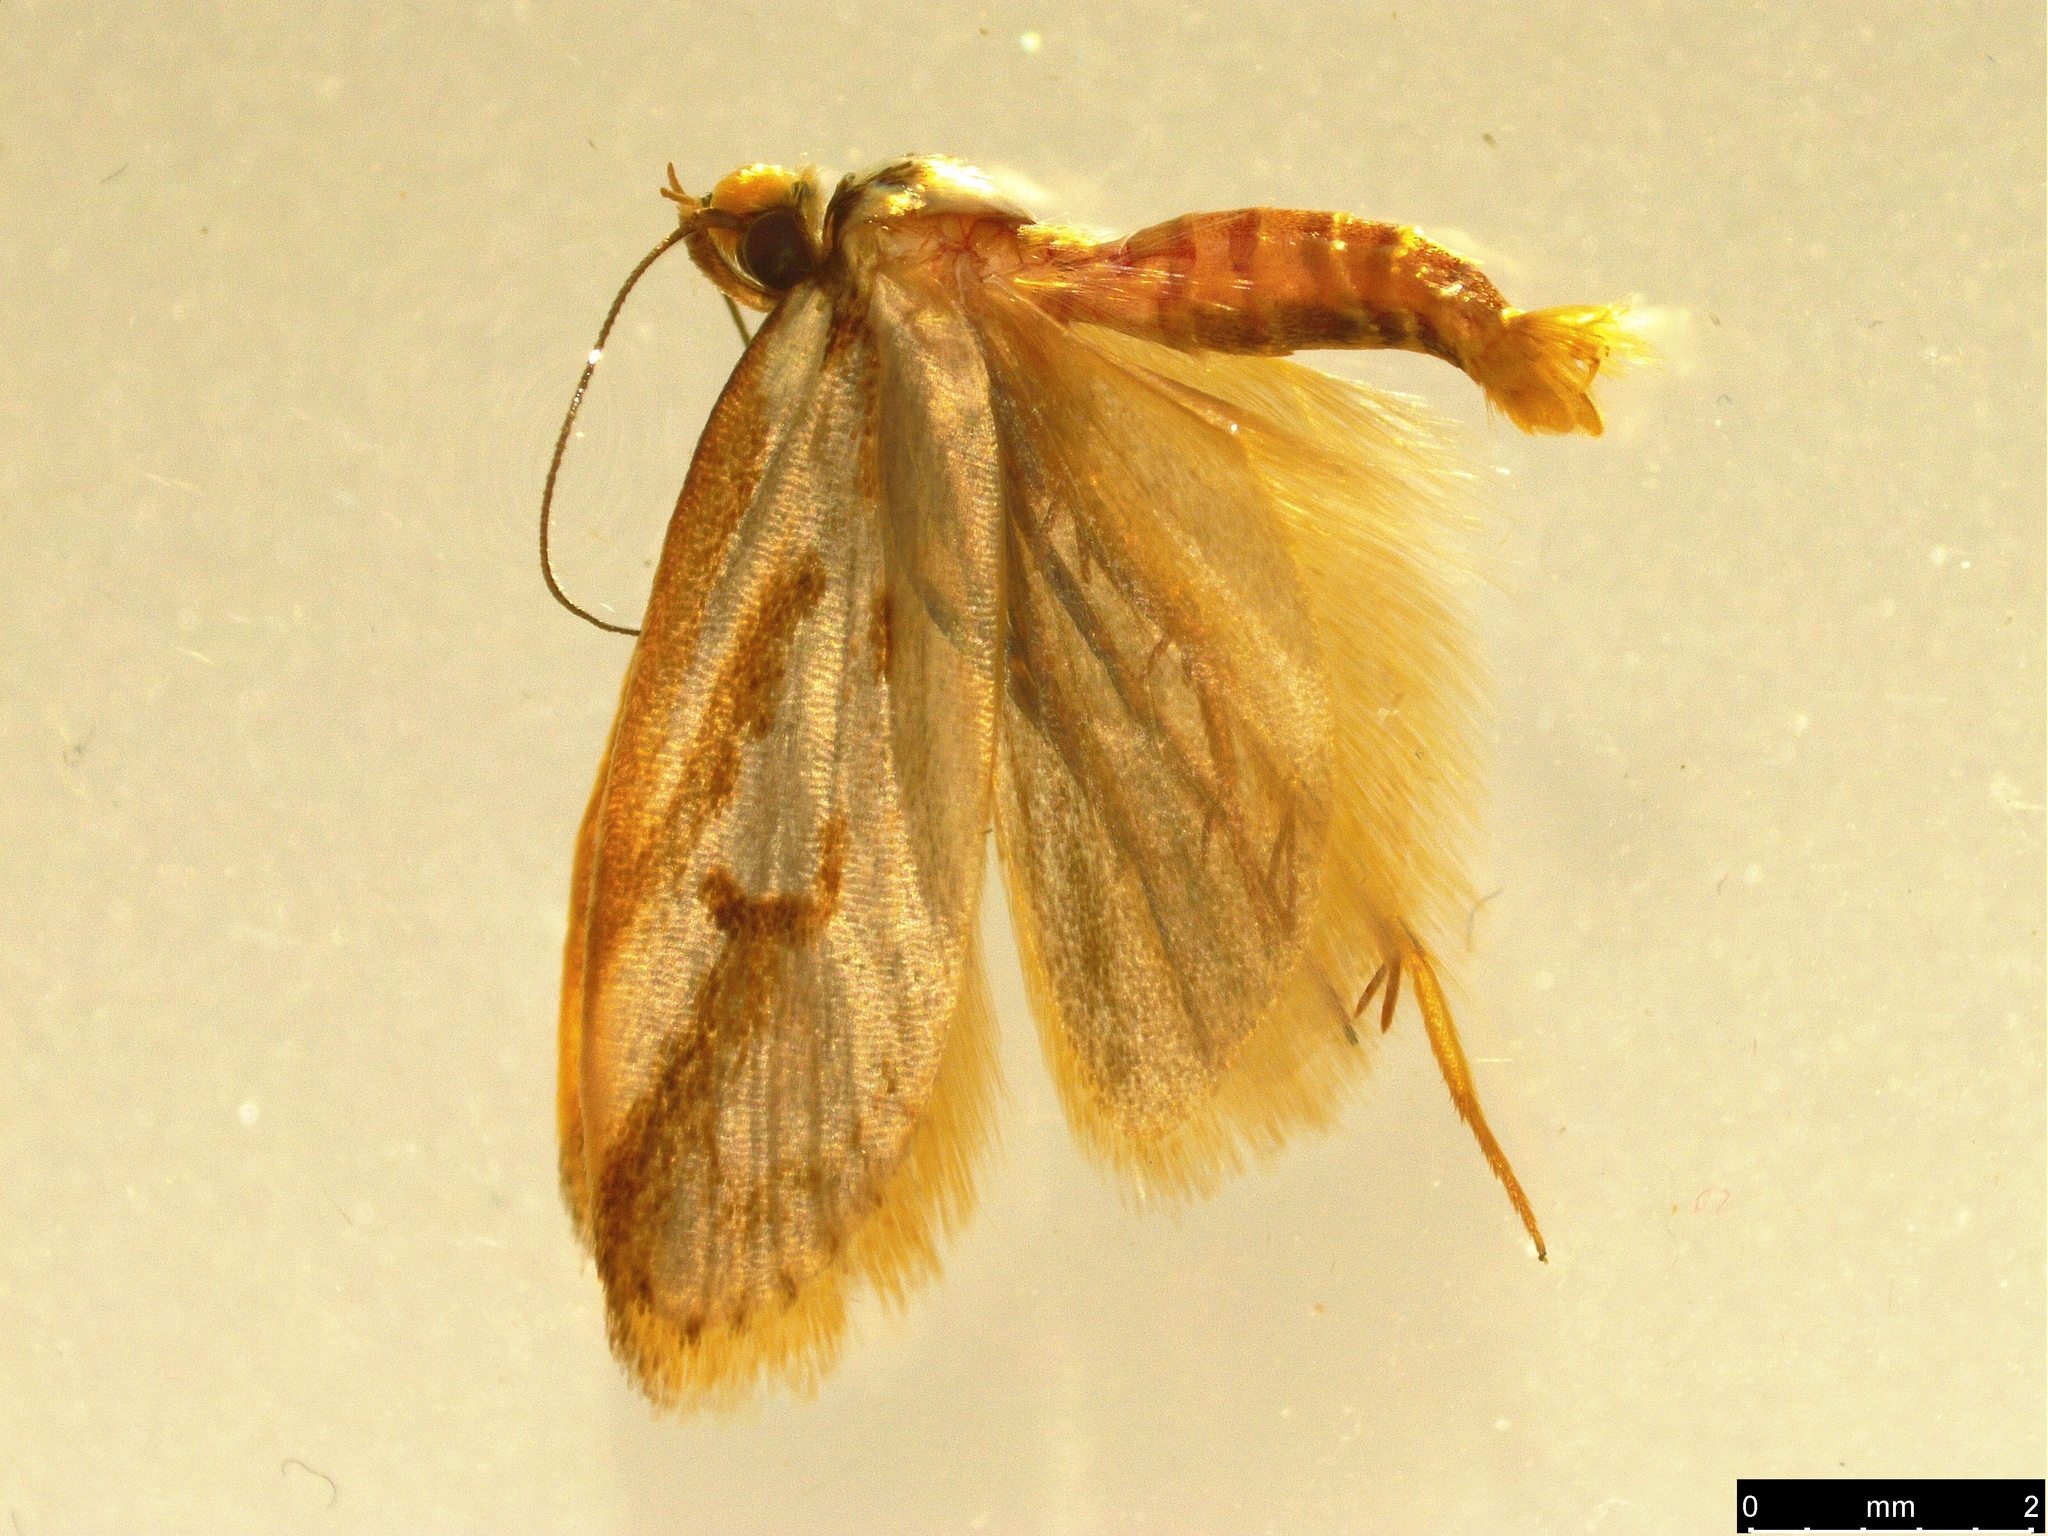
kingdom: Animalia
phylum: Arthropoda
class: Insecta
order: Lepidoptera
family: Oecophoridae
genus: Philobota
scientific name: Philobota cretacea
